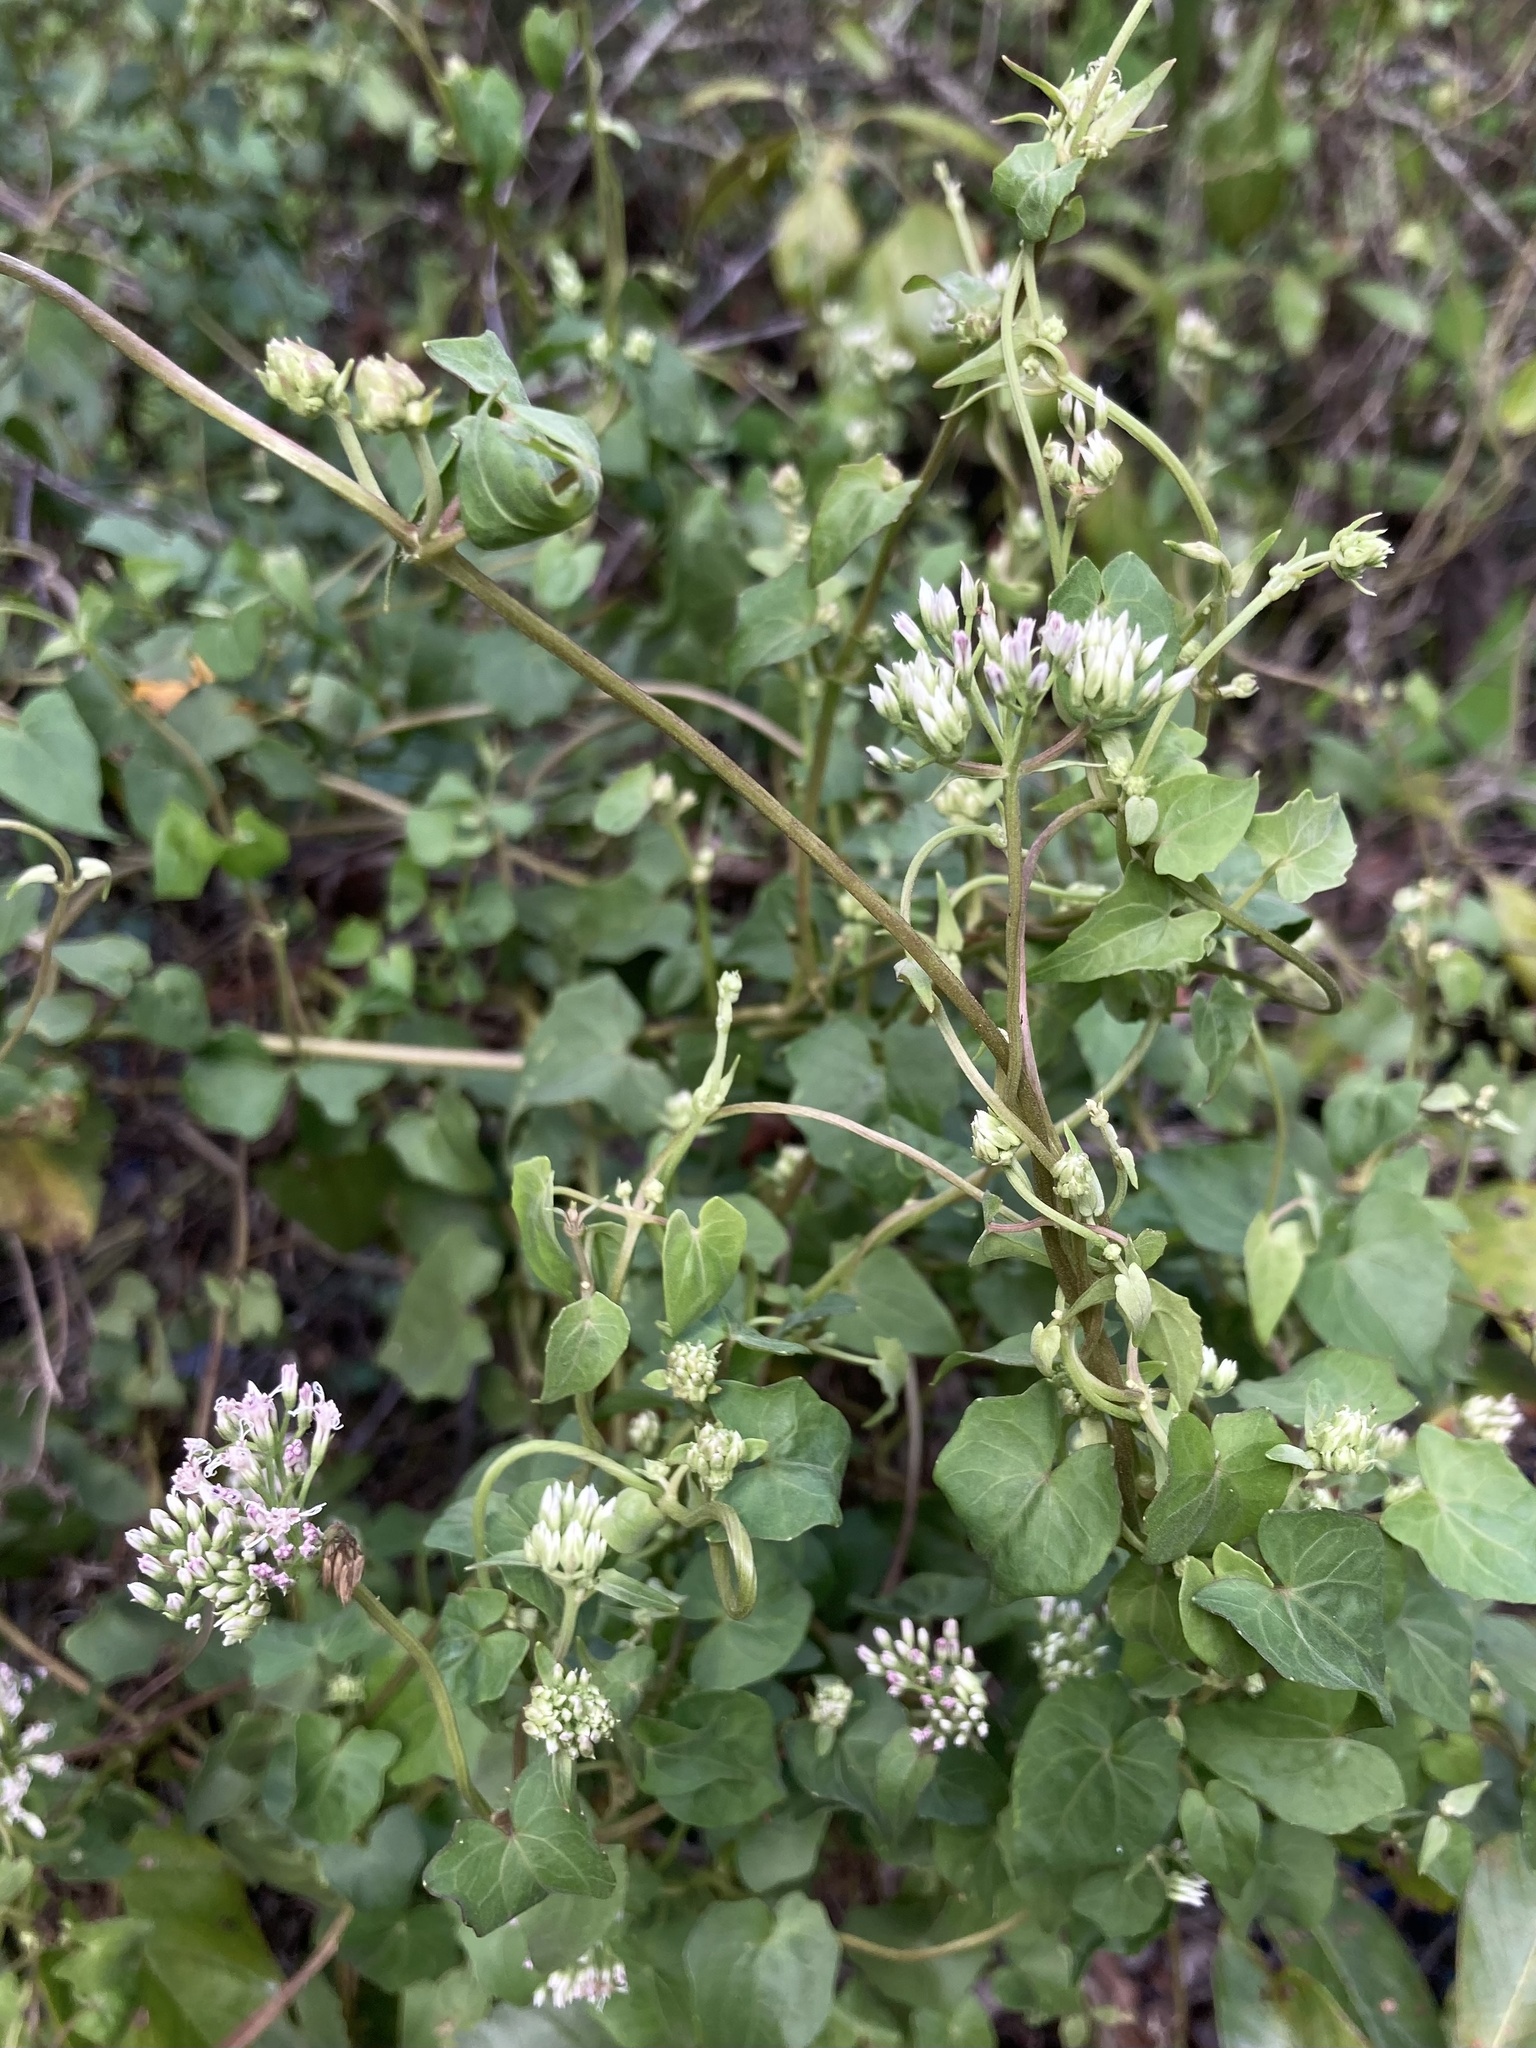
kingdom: Plantae
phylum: Tracheophyta
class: Magnoliopsida
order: Asterales
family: Asteraceae
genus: Mikania
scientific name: Mikania scandens
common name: Climbing hempvine
